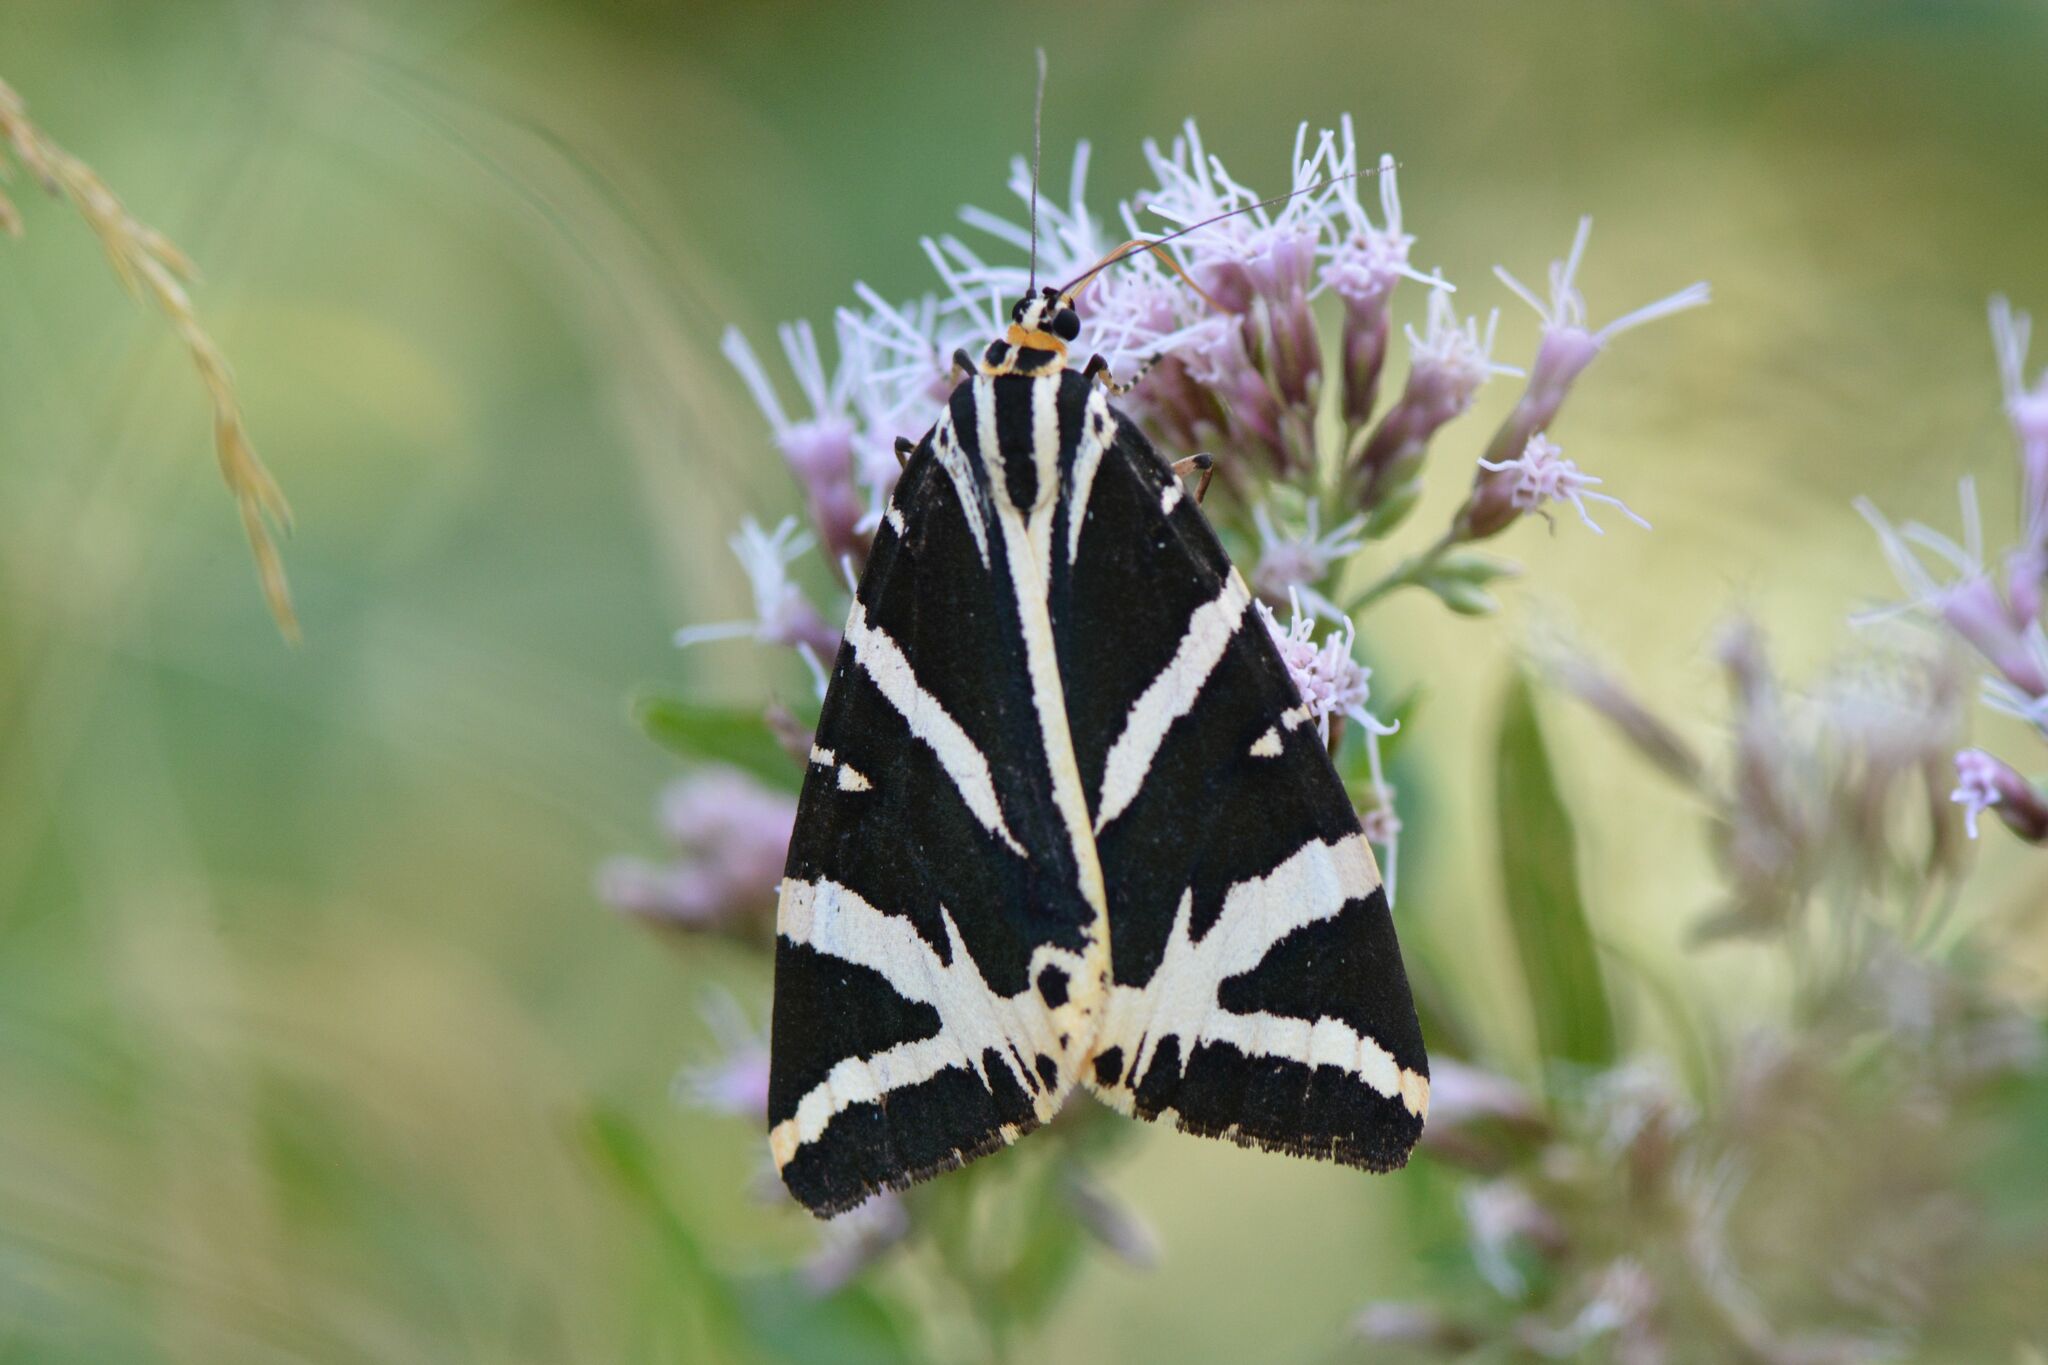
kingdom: Animalia
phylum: Arthropoda
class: Insecta
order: Lepidoptera
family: Erebidae
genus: Euplagia
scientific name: Euplagia quadripunctaria
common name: Jersey tiger
